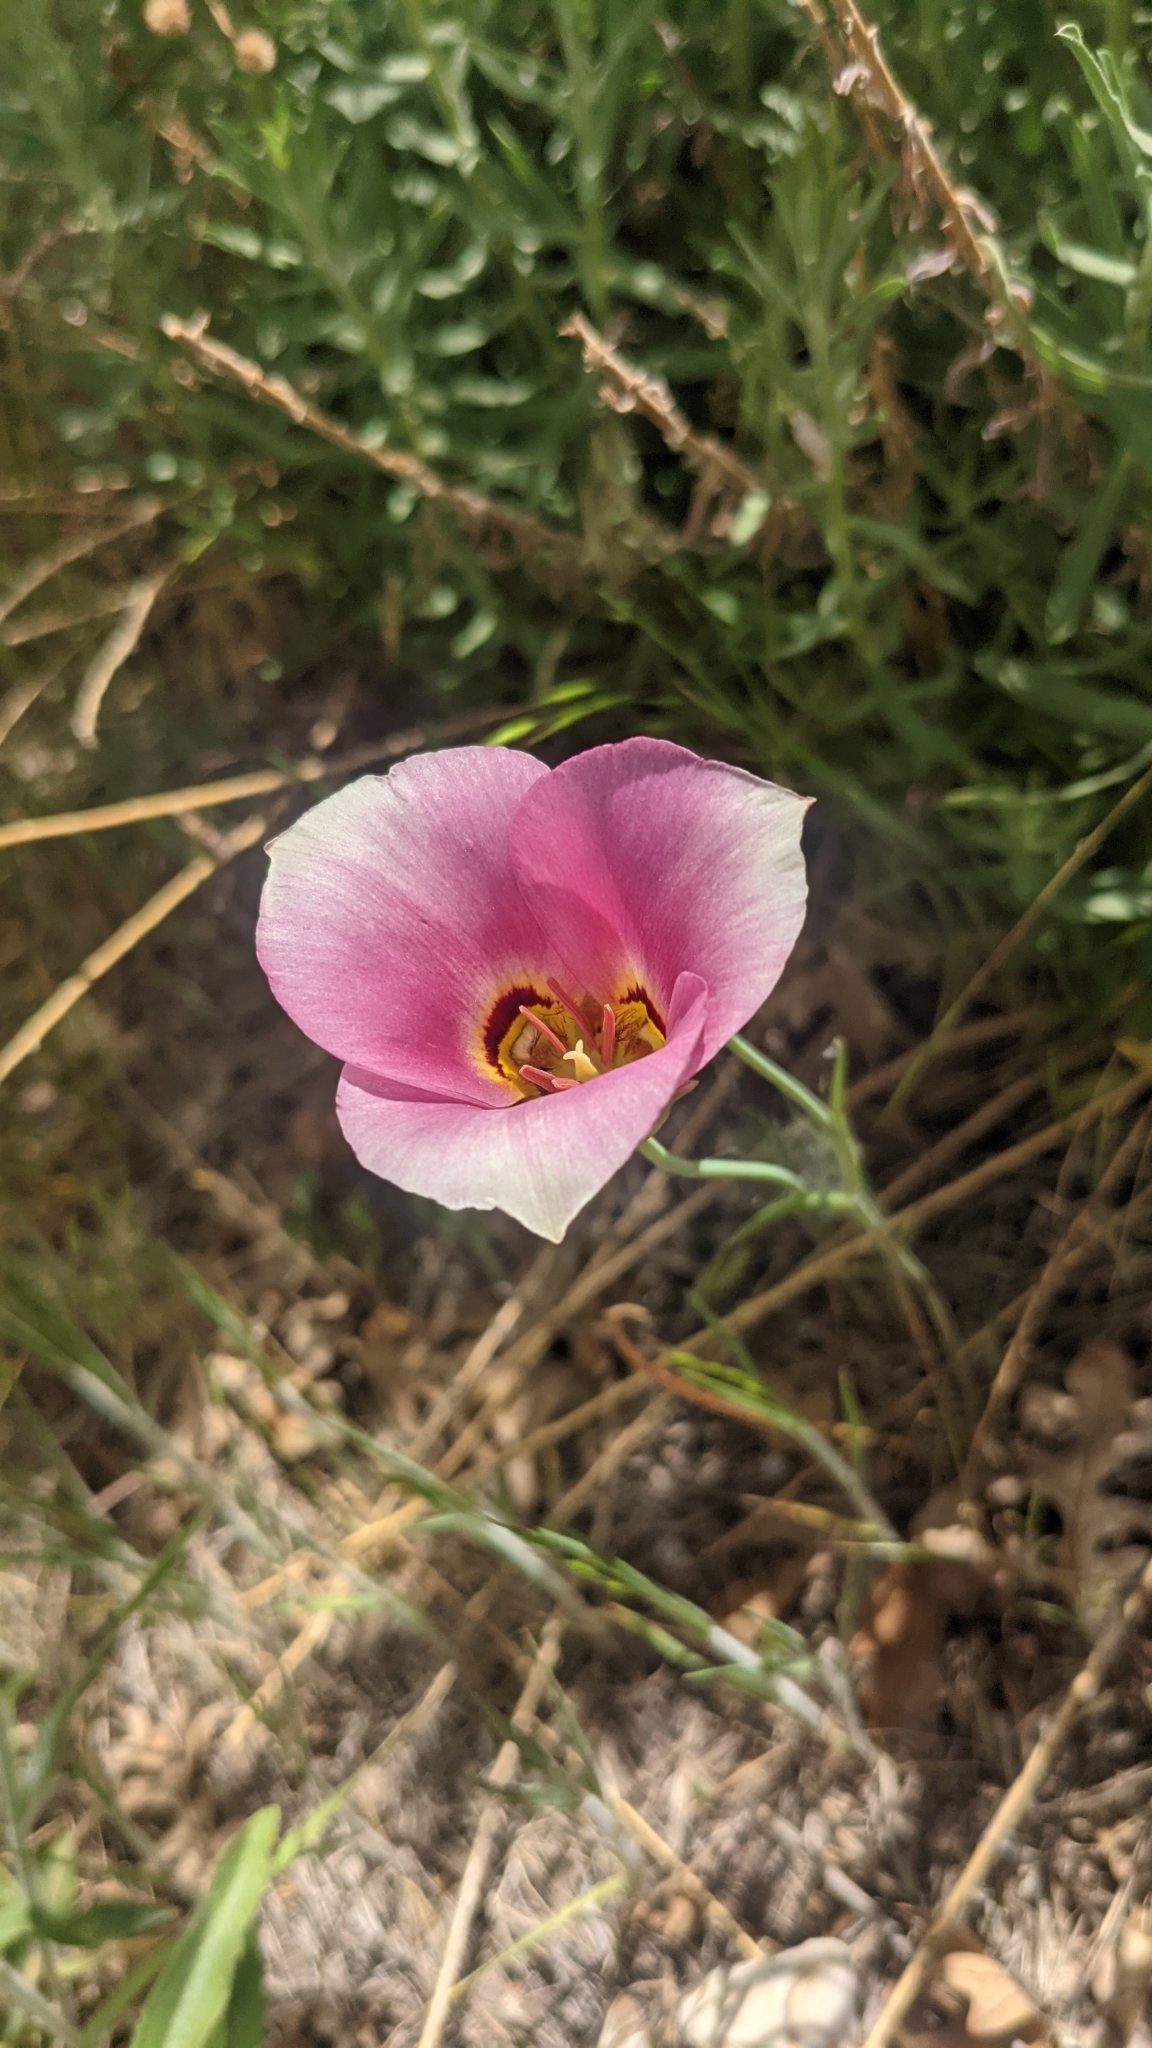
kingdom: Plantae
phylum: Tracheophyta
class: Liliopsida
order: Liliales
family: Liliaceae
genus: Calochortus
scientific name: Calochortus nuttallii
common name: Sego-lily
